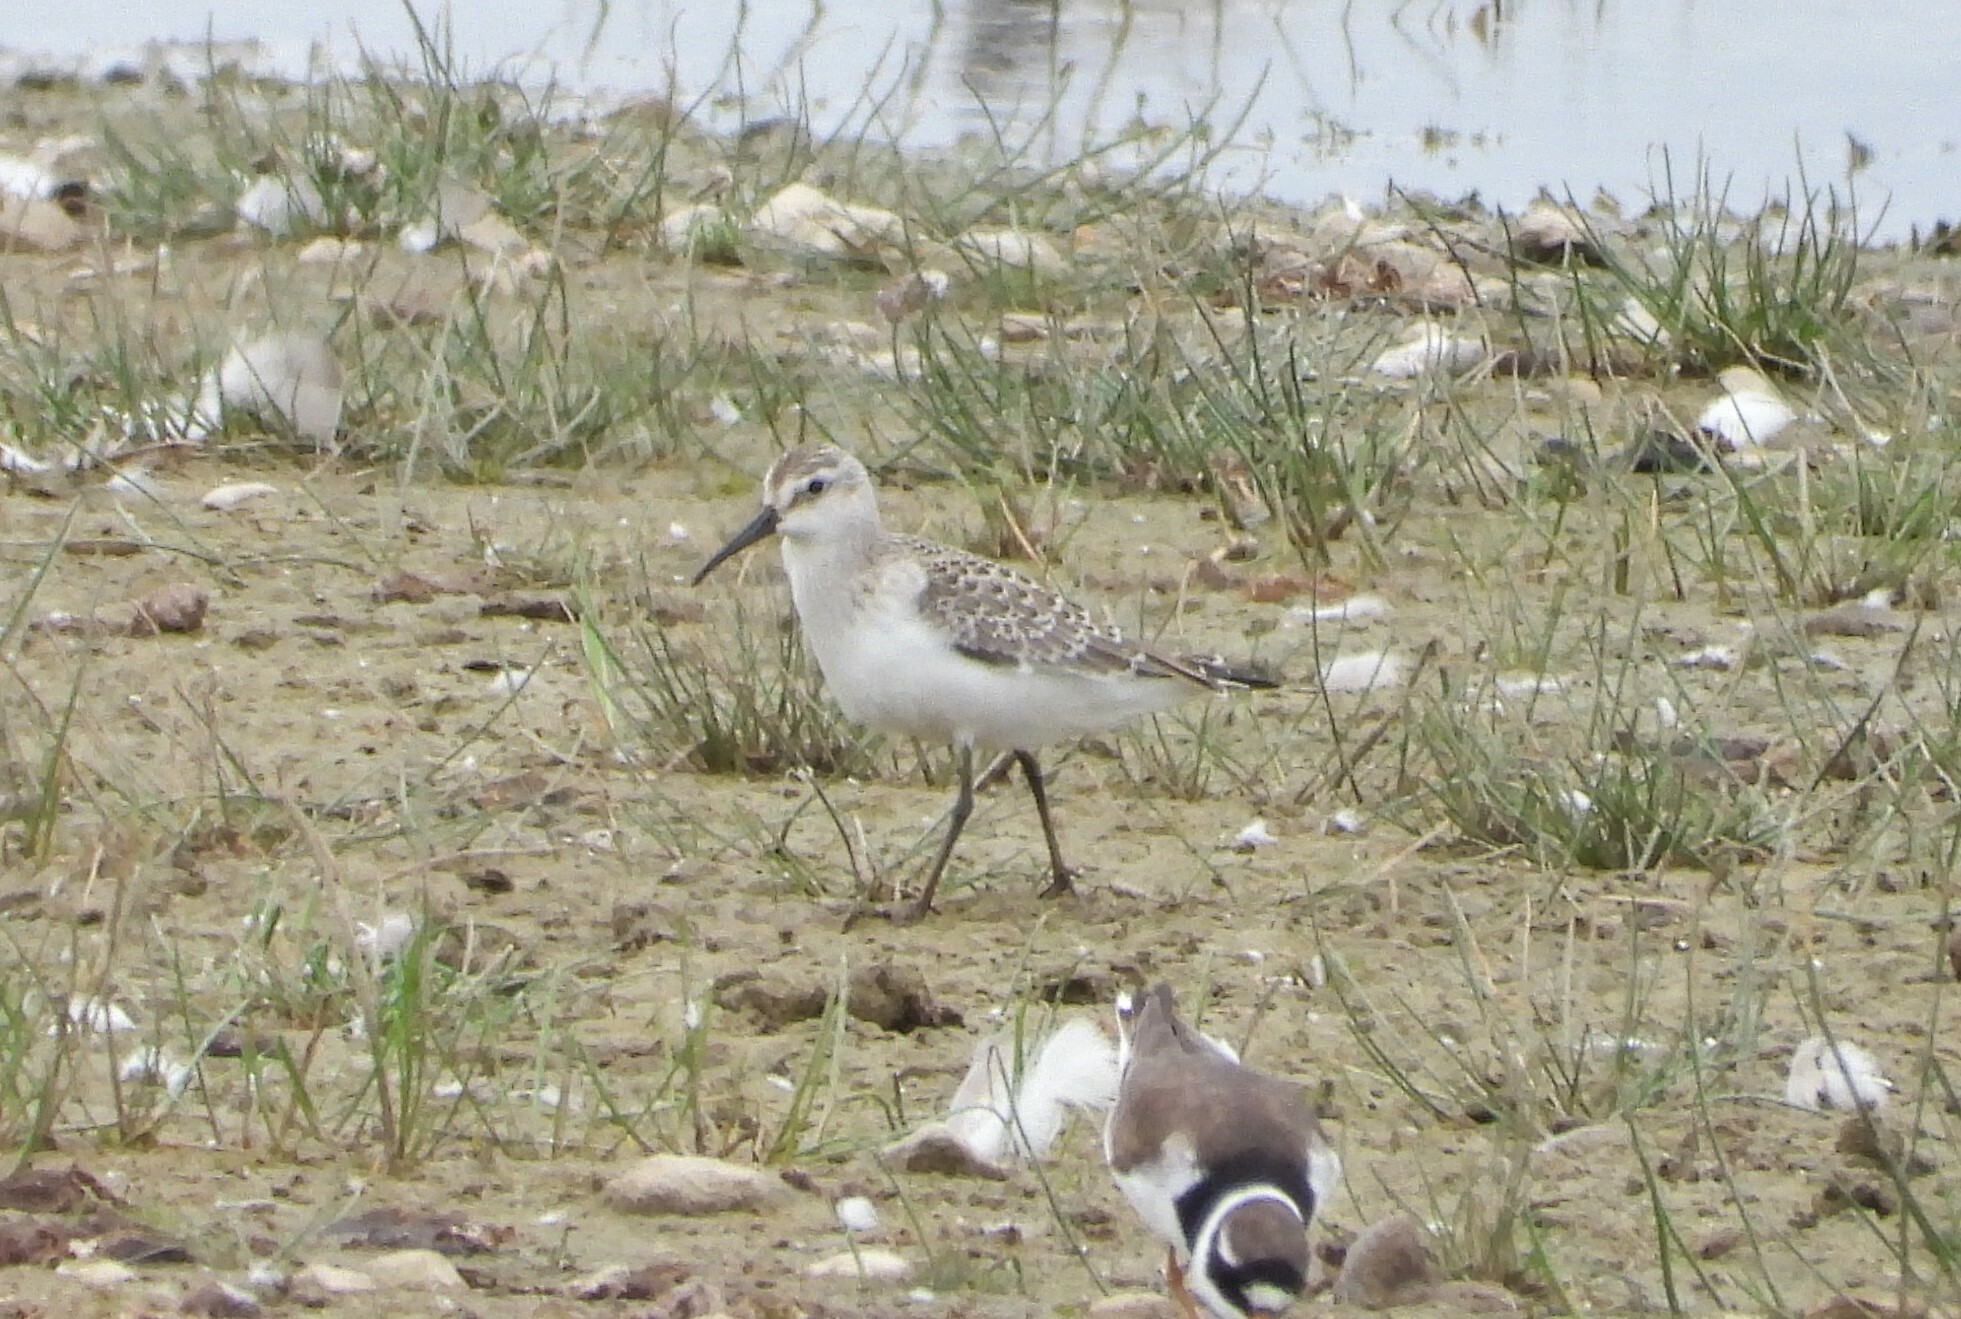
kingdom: Animalia
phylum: Chordata
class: Aves
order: Charadriiformes
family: Scolopacidae
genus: Calidris
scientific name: Calidris ferruginea
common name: Curlew sandpiper
